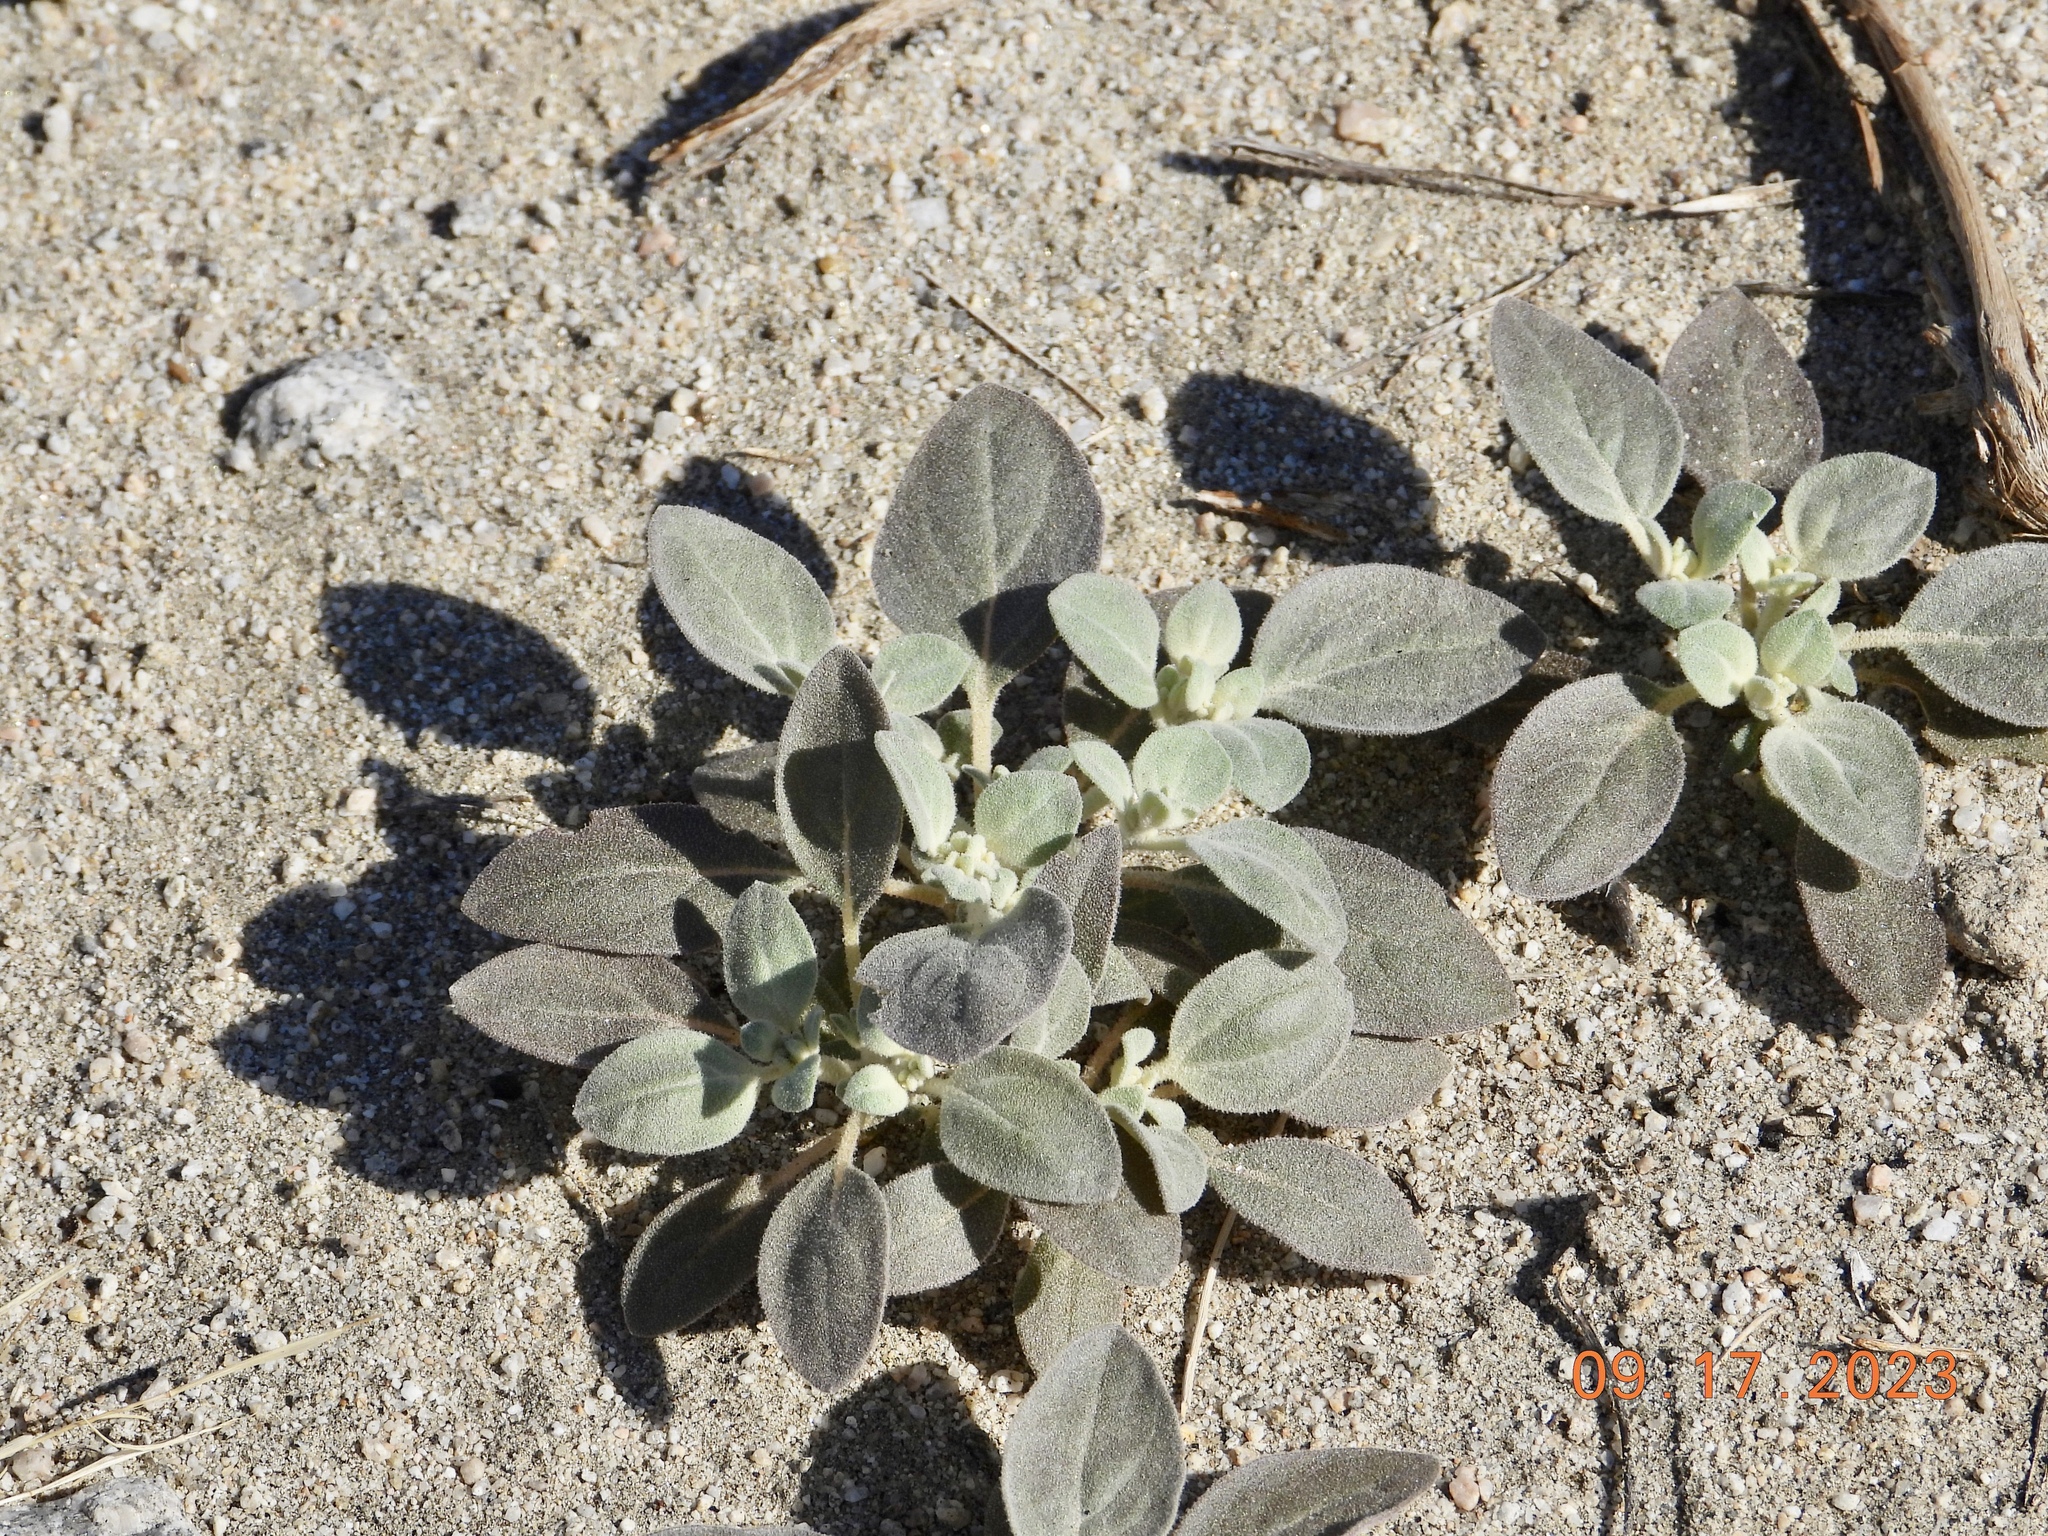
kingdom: Plantae
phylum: Tracheophyta
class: Magnoliopsida
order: Caryophyllales
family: Amaranthaceae
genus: Tidestromia
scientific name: Tidestromia suffruticosa
